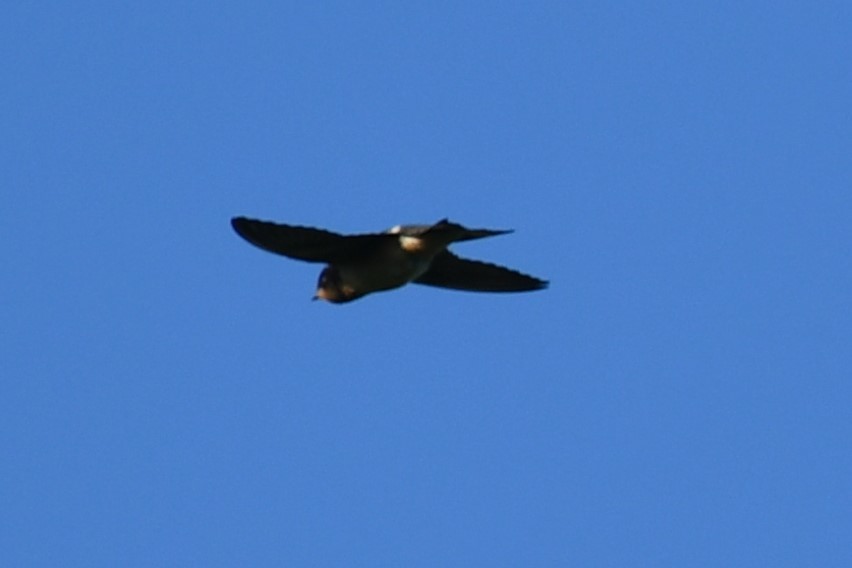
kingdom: Animalia
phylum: Chordata
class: Aves
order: Passeriformes
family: Hirundinidae
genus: Petrochelidon
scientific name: Petrochelidon pyrrhonota
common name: American cliff swallow
